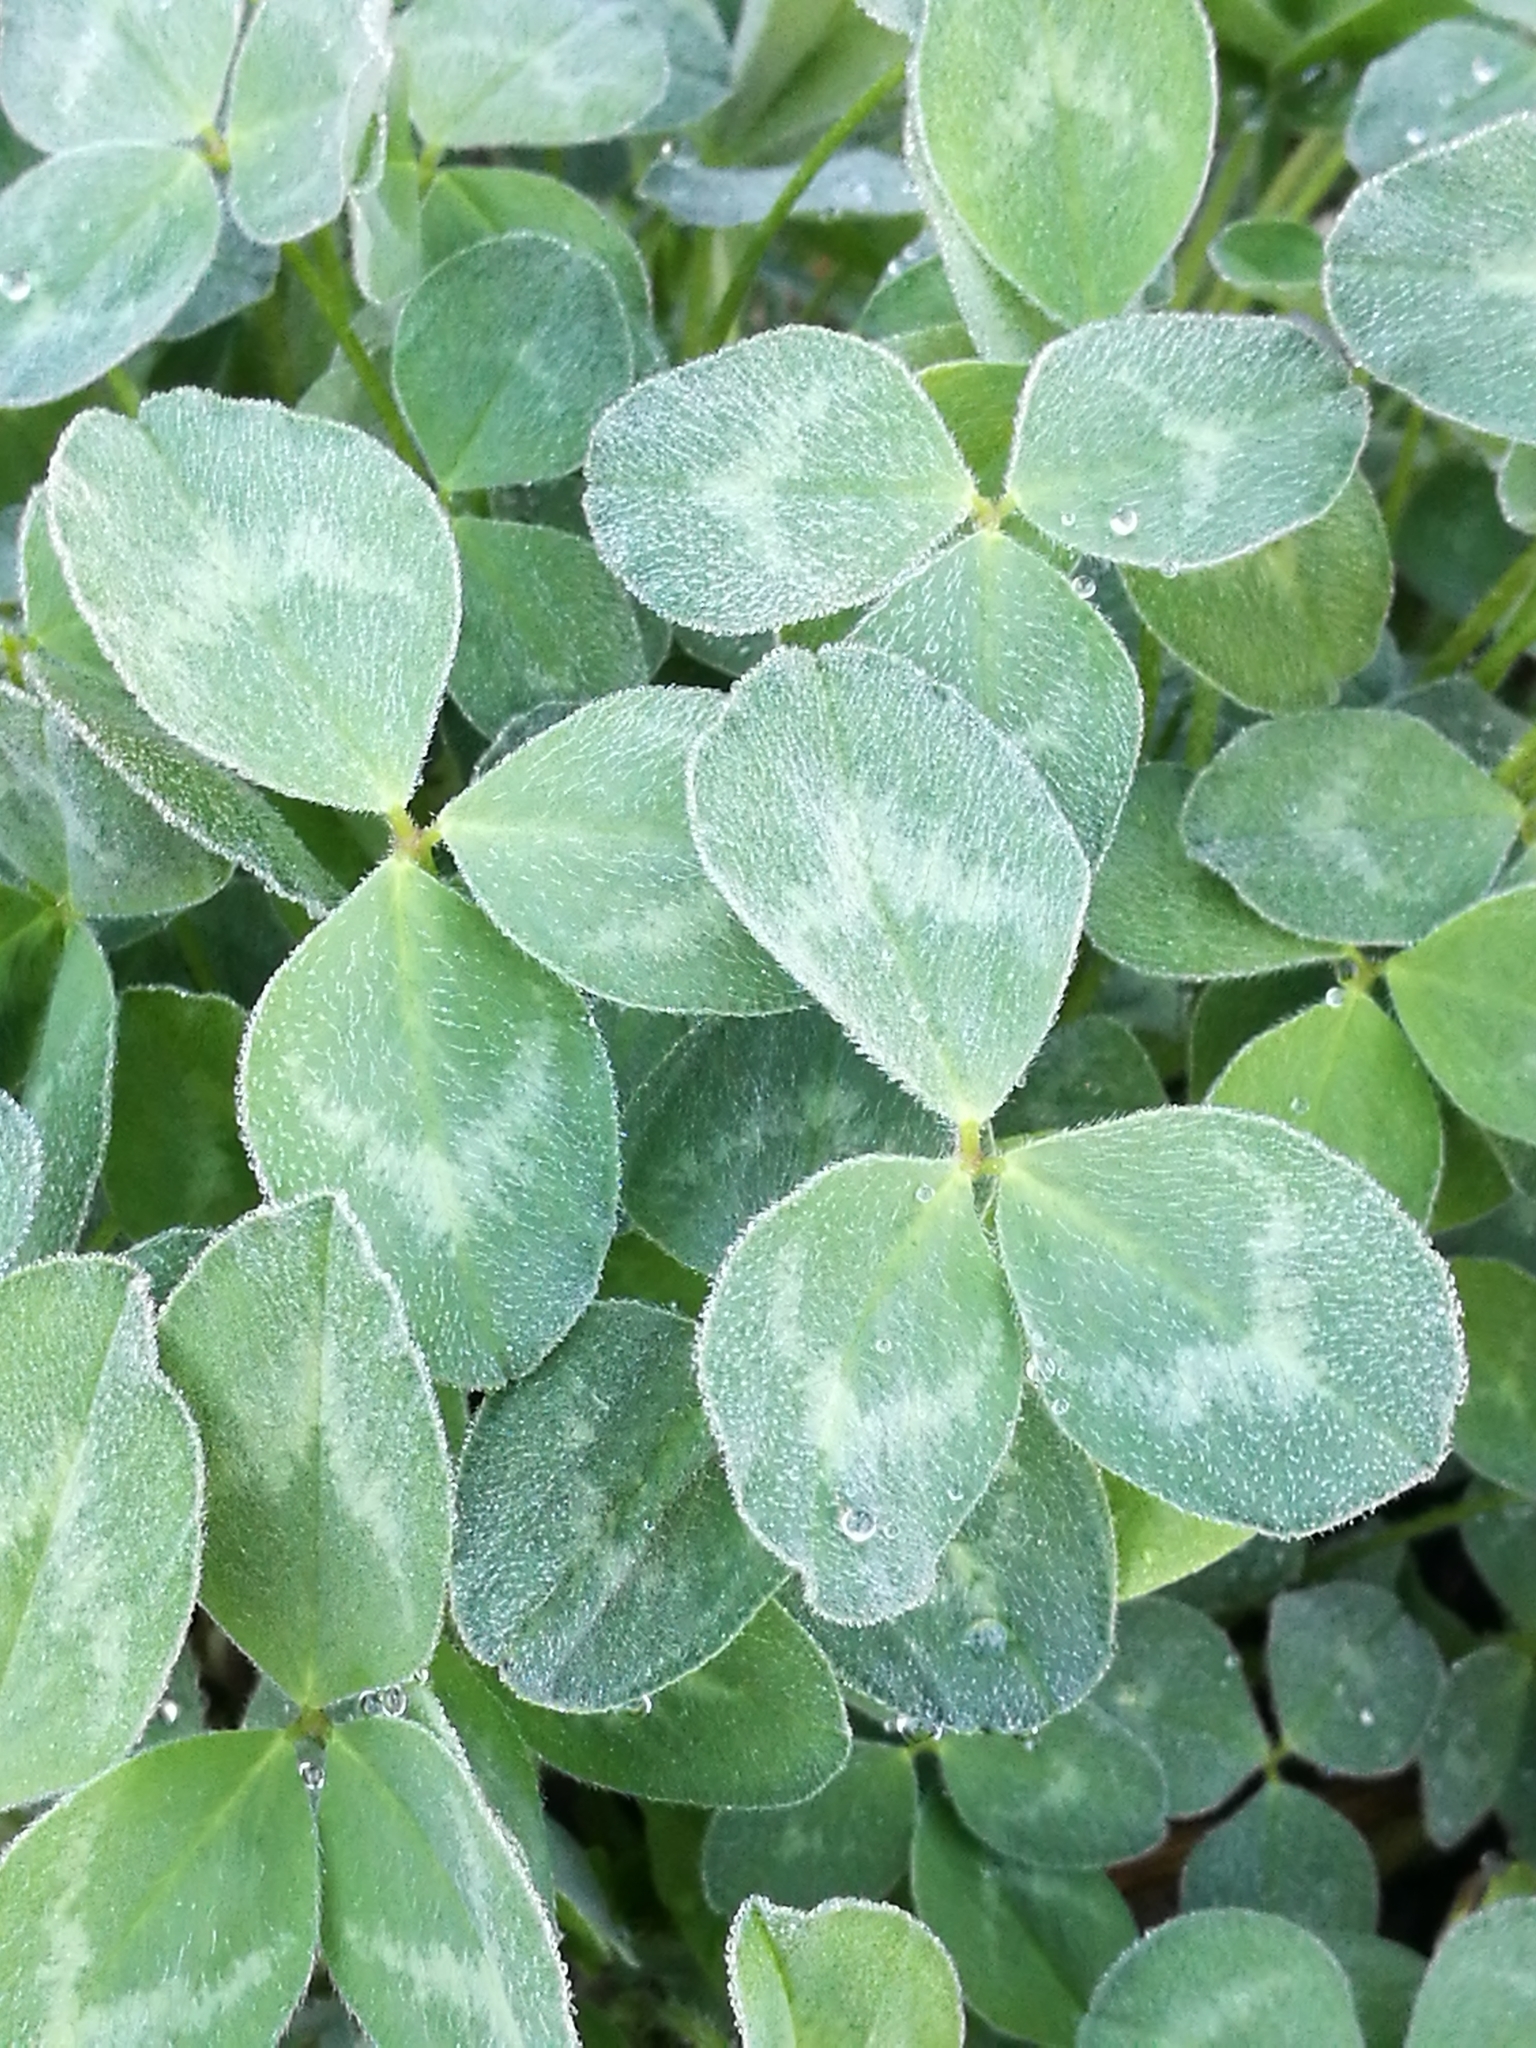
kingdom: Plantae
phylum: Tracheophyta
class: Magnoliopsida
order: Fabales
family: Fabaceae
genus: Trifolium
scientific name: Trifolium pratense
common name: Red clover
